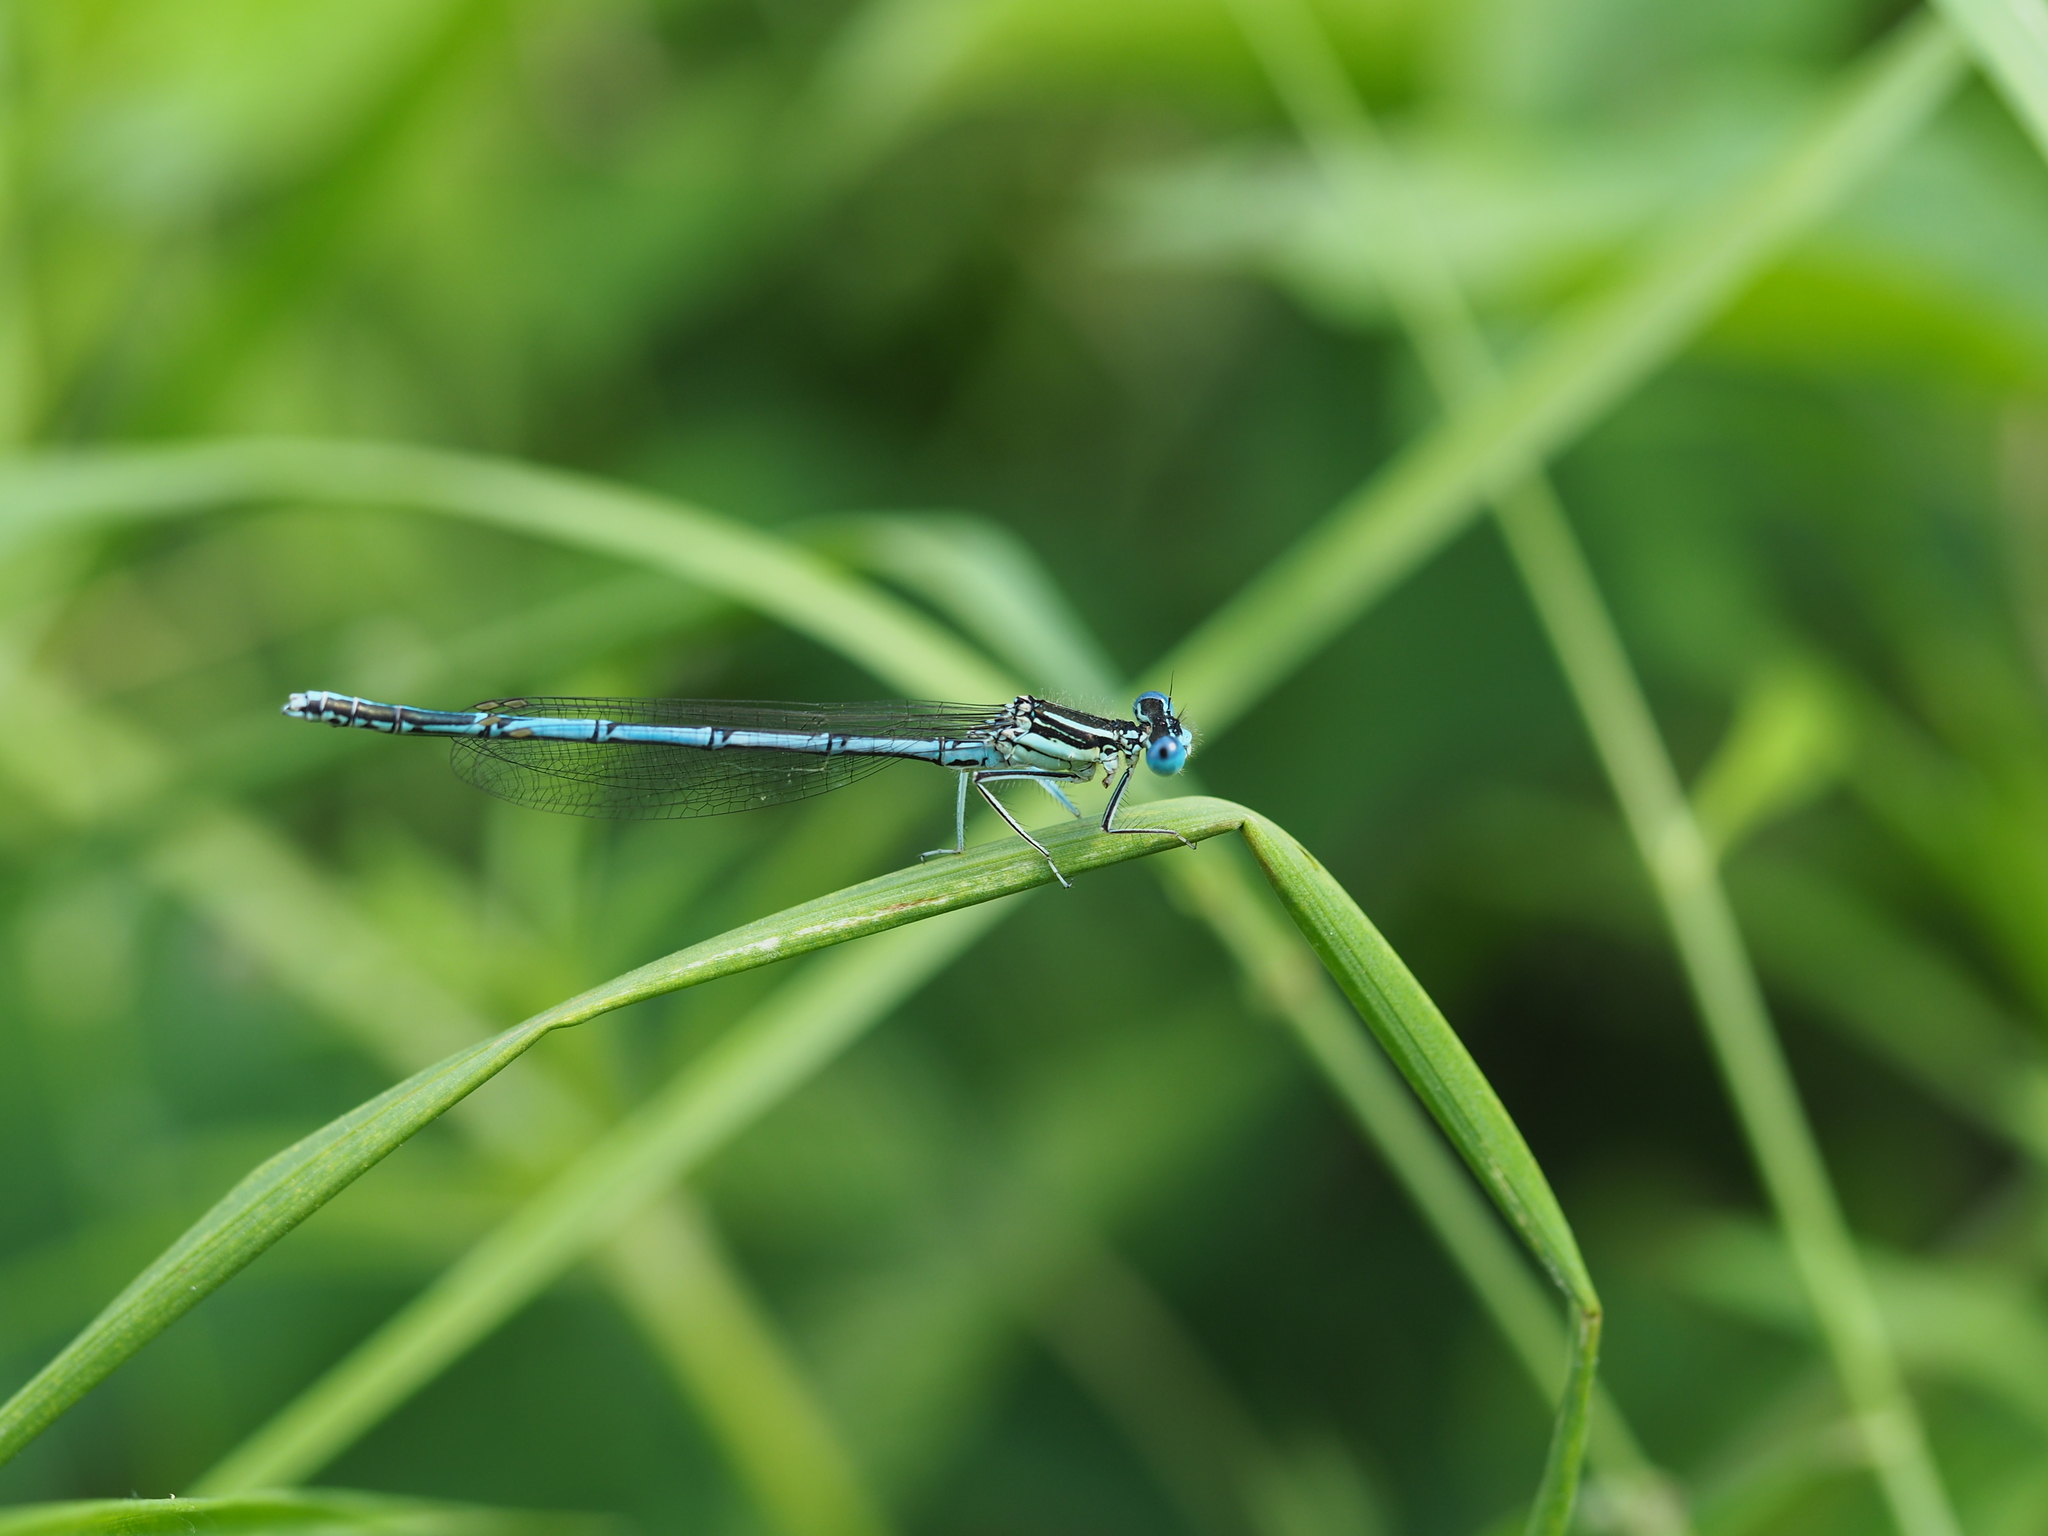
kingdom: Animalia
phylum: Arthropoda
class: Insecta
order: Odonata
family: Platycnemididae
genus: Platycnemis
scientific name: Platycnemis pennipes
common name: White-legged damselfly
